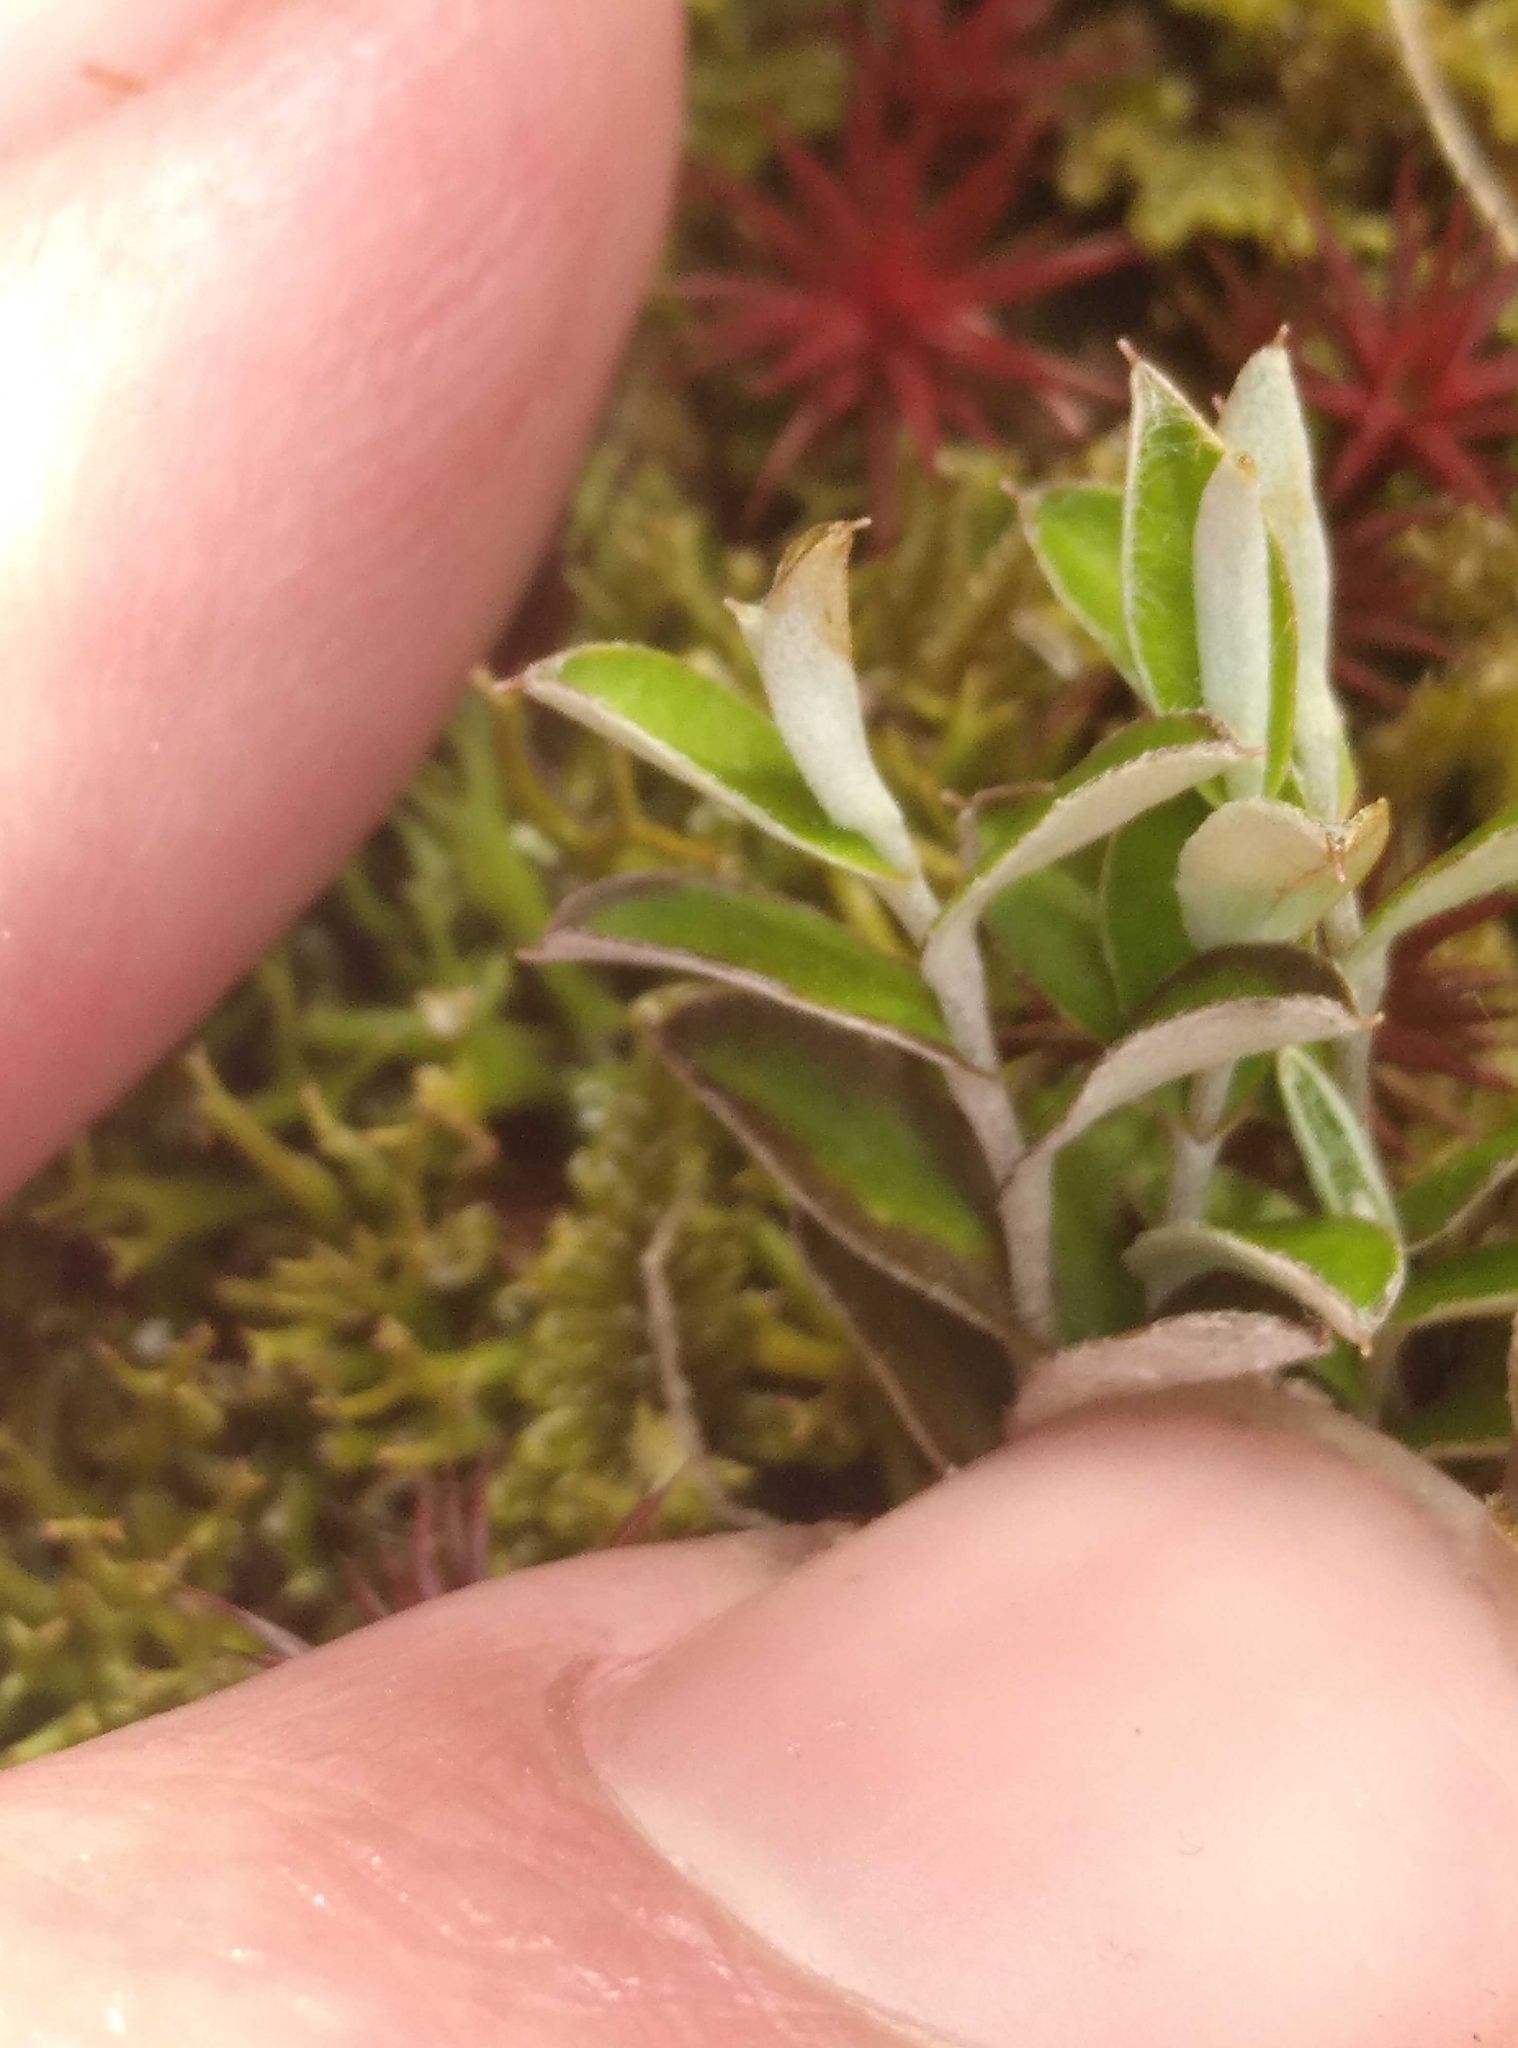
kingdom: Plantae
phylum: Tracheophyta
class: Magnoliopsida
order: Asterales
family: Asteraceae
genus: Helichrysum
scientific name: Helichrysum filicaule
